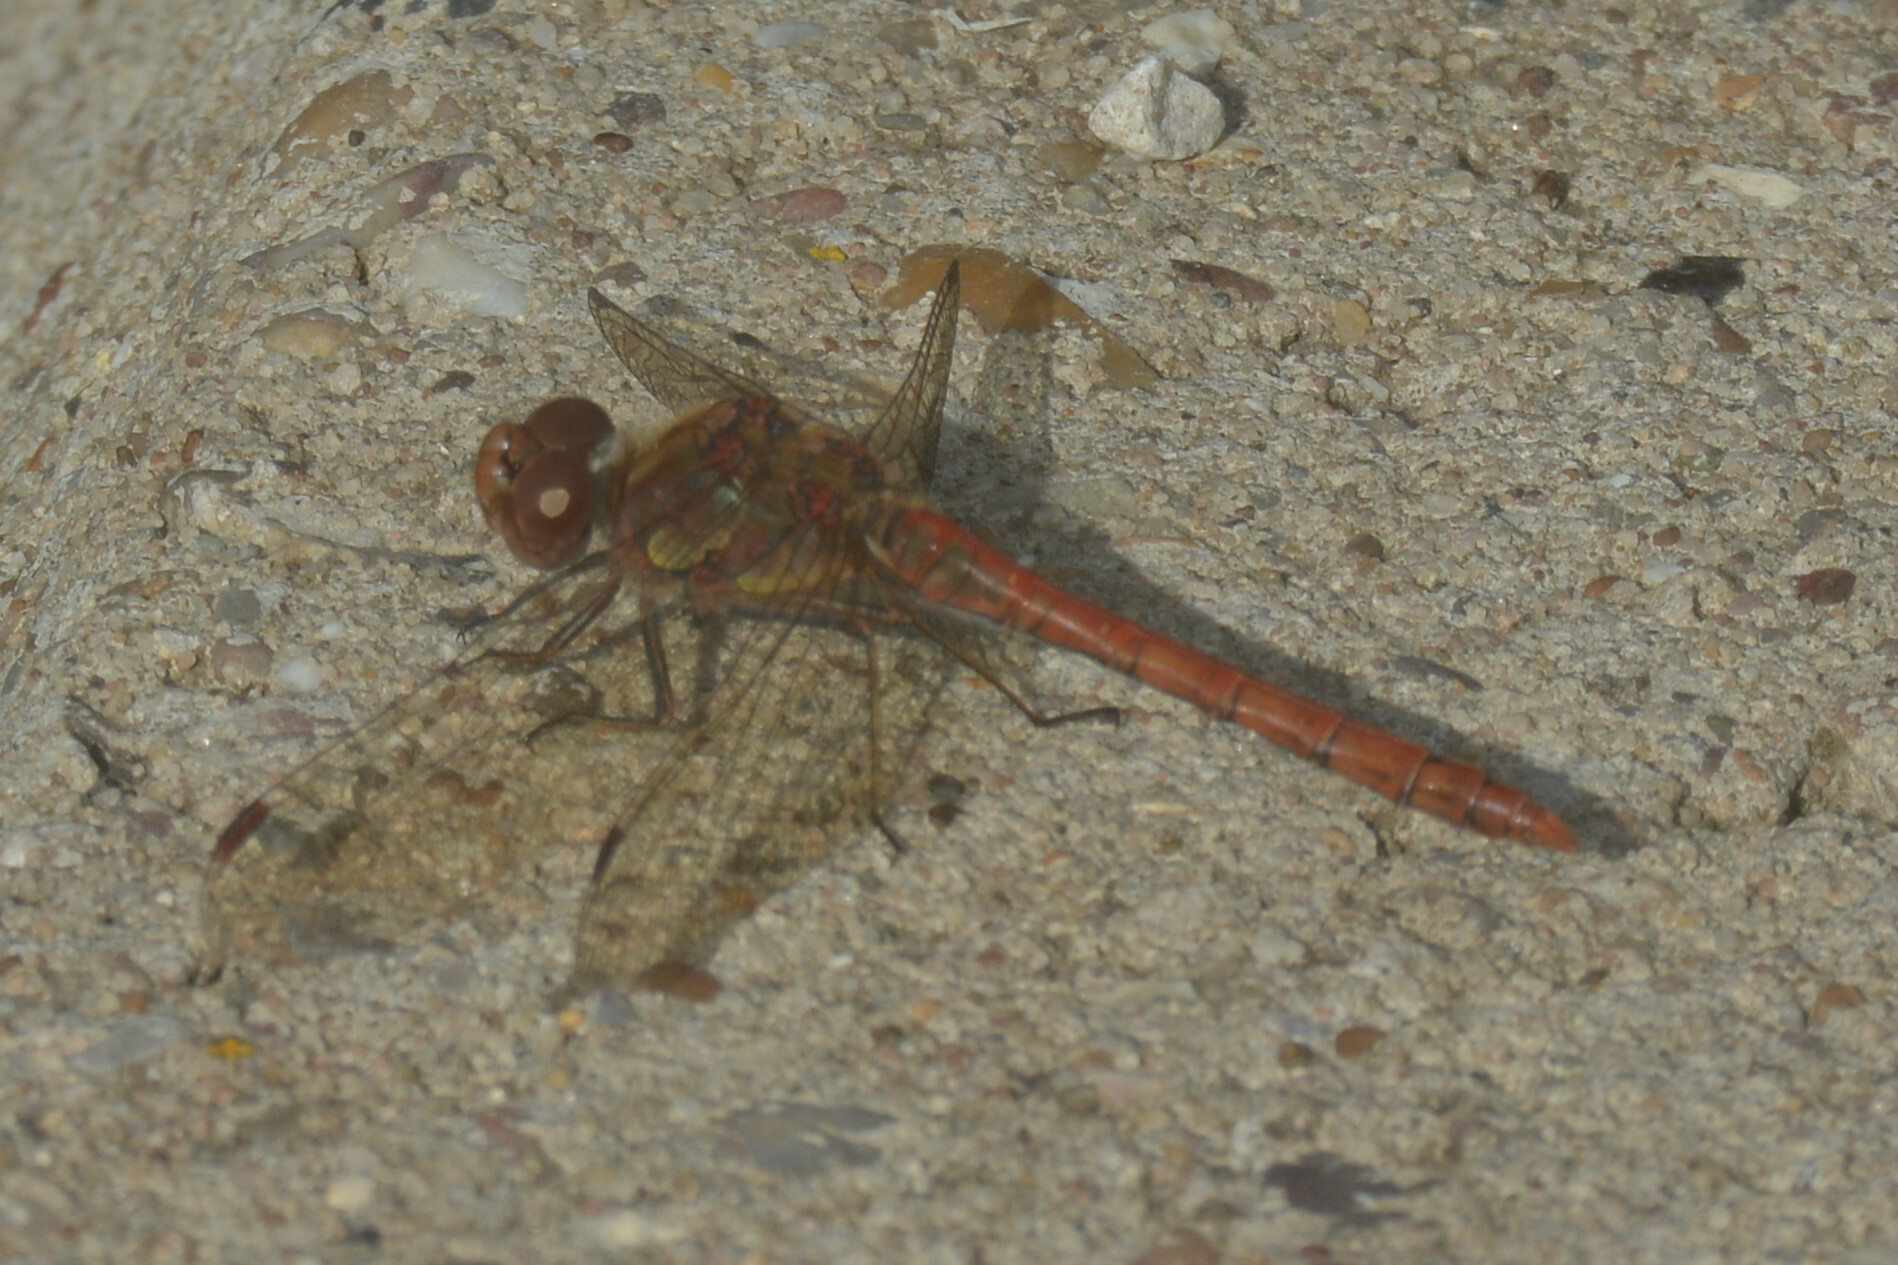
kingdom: Animalia
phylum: Arthropoda
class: Insecta
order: Odonata
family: Libellulidae
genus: Sympetrum
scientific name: Sympetrum striolatum
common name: Common darter
